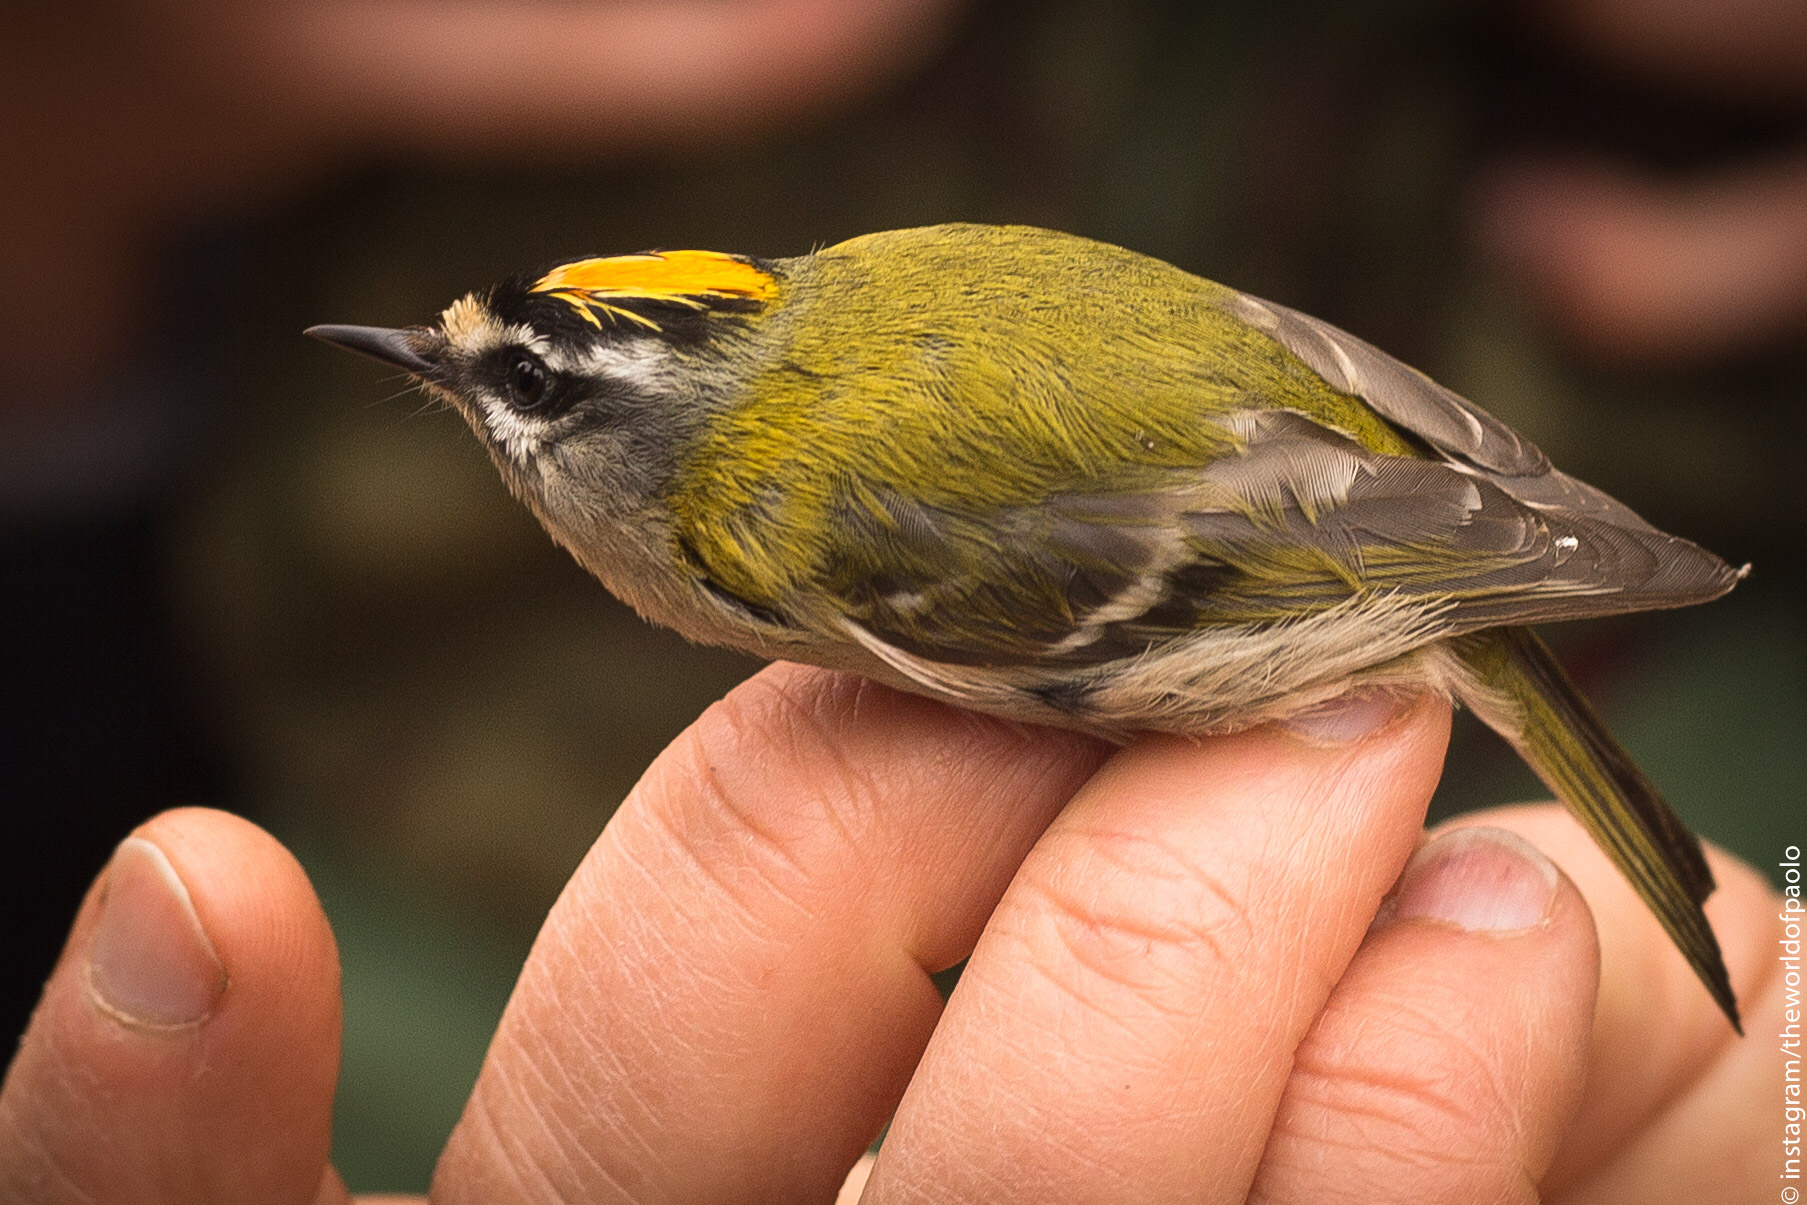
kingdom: Animalia
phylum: Chordata
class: Aves
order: Passeriformes
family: Regulidae
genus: Regulus
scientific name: Regulus ignicapilla
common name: Firecrest
